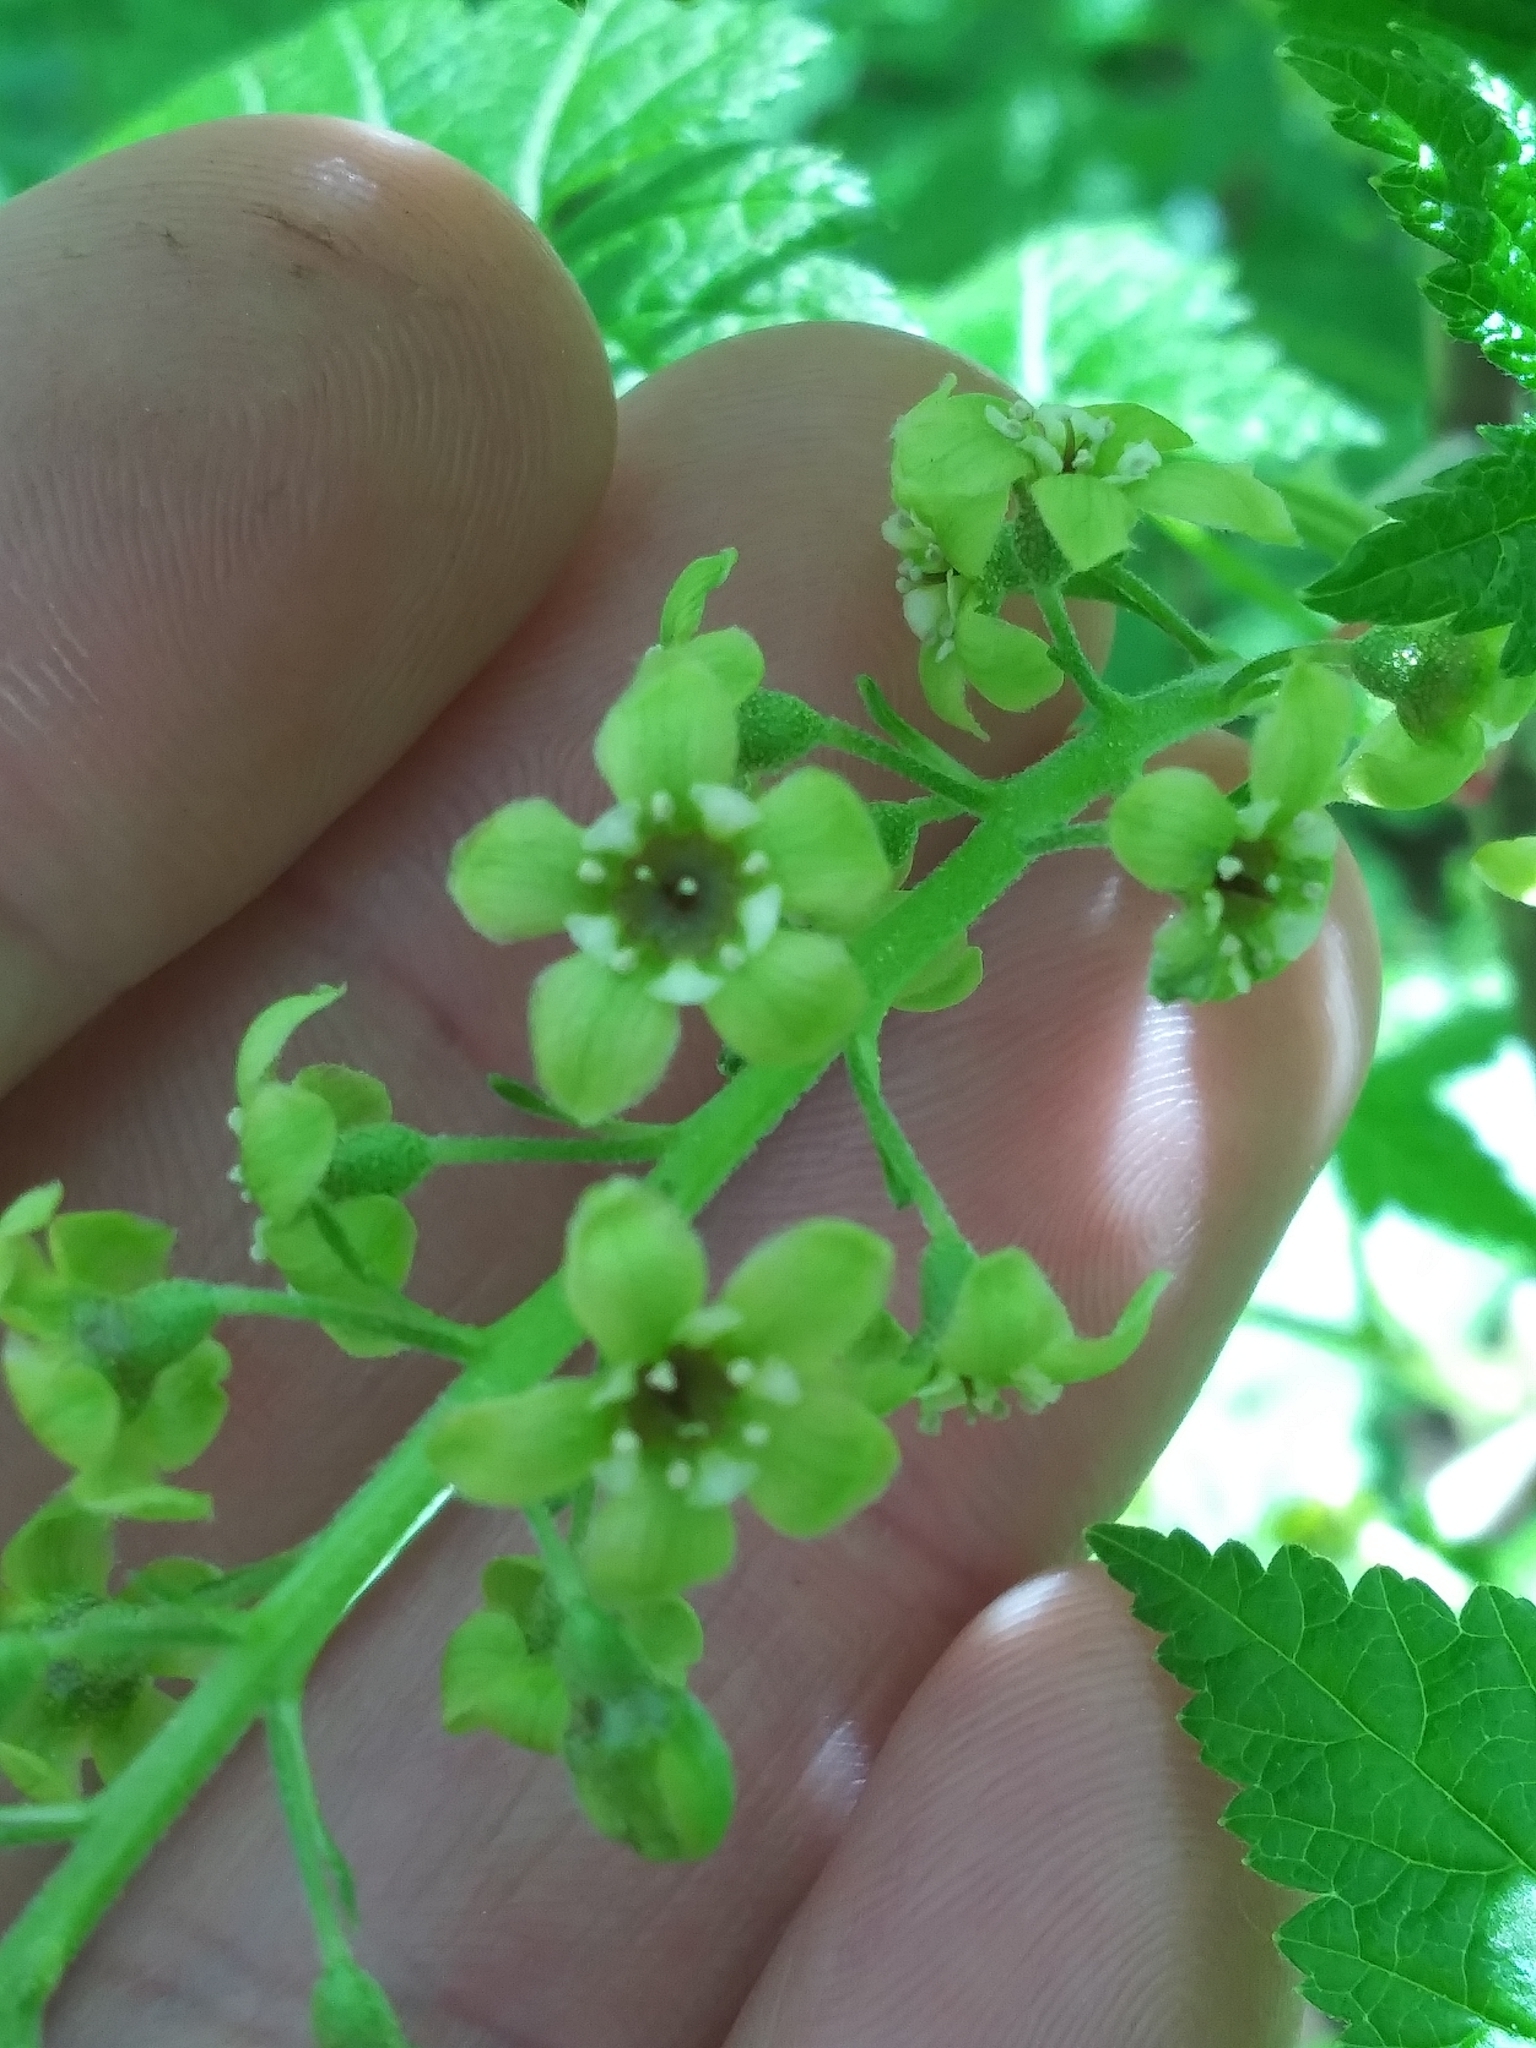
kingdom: Plantae
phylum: Tracheophyta
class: Magnoliopsida
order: Saxifragales
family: Grossulariaceae
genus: Ribes
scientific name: Ribes bracteosum
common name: California black currant
